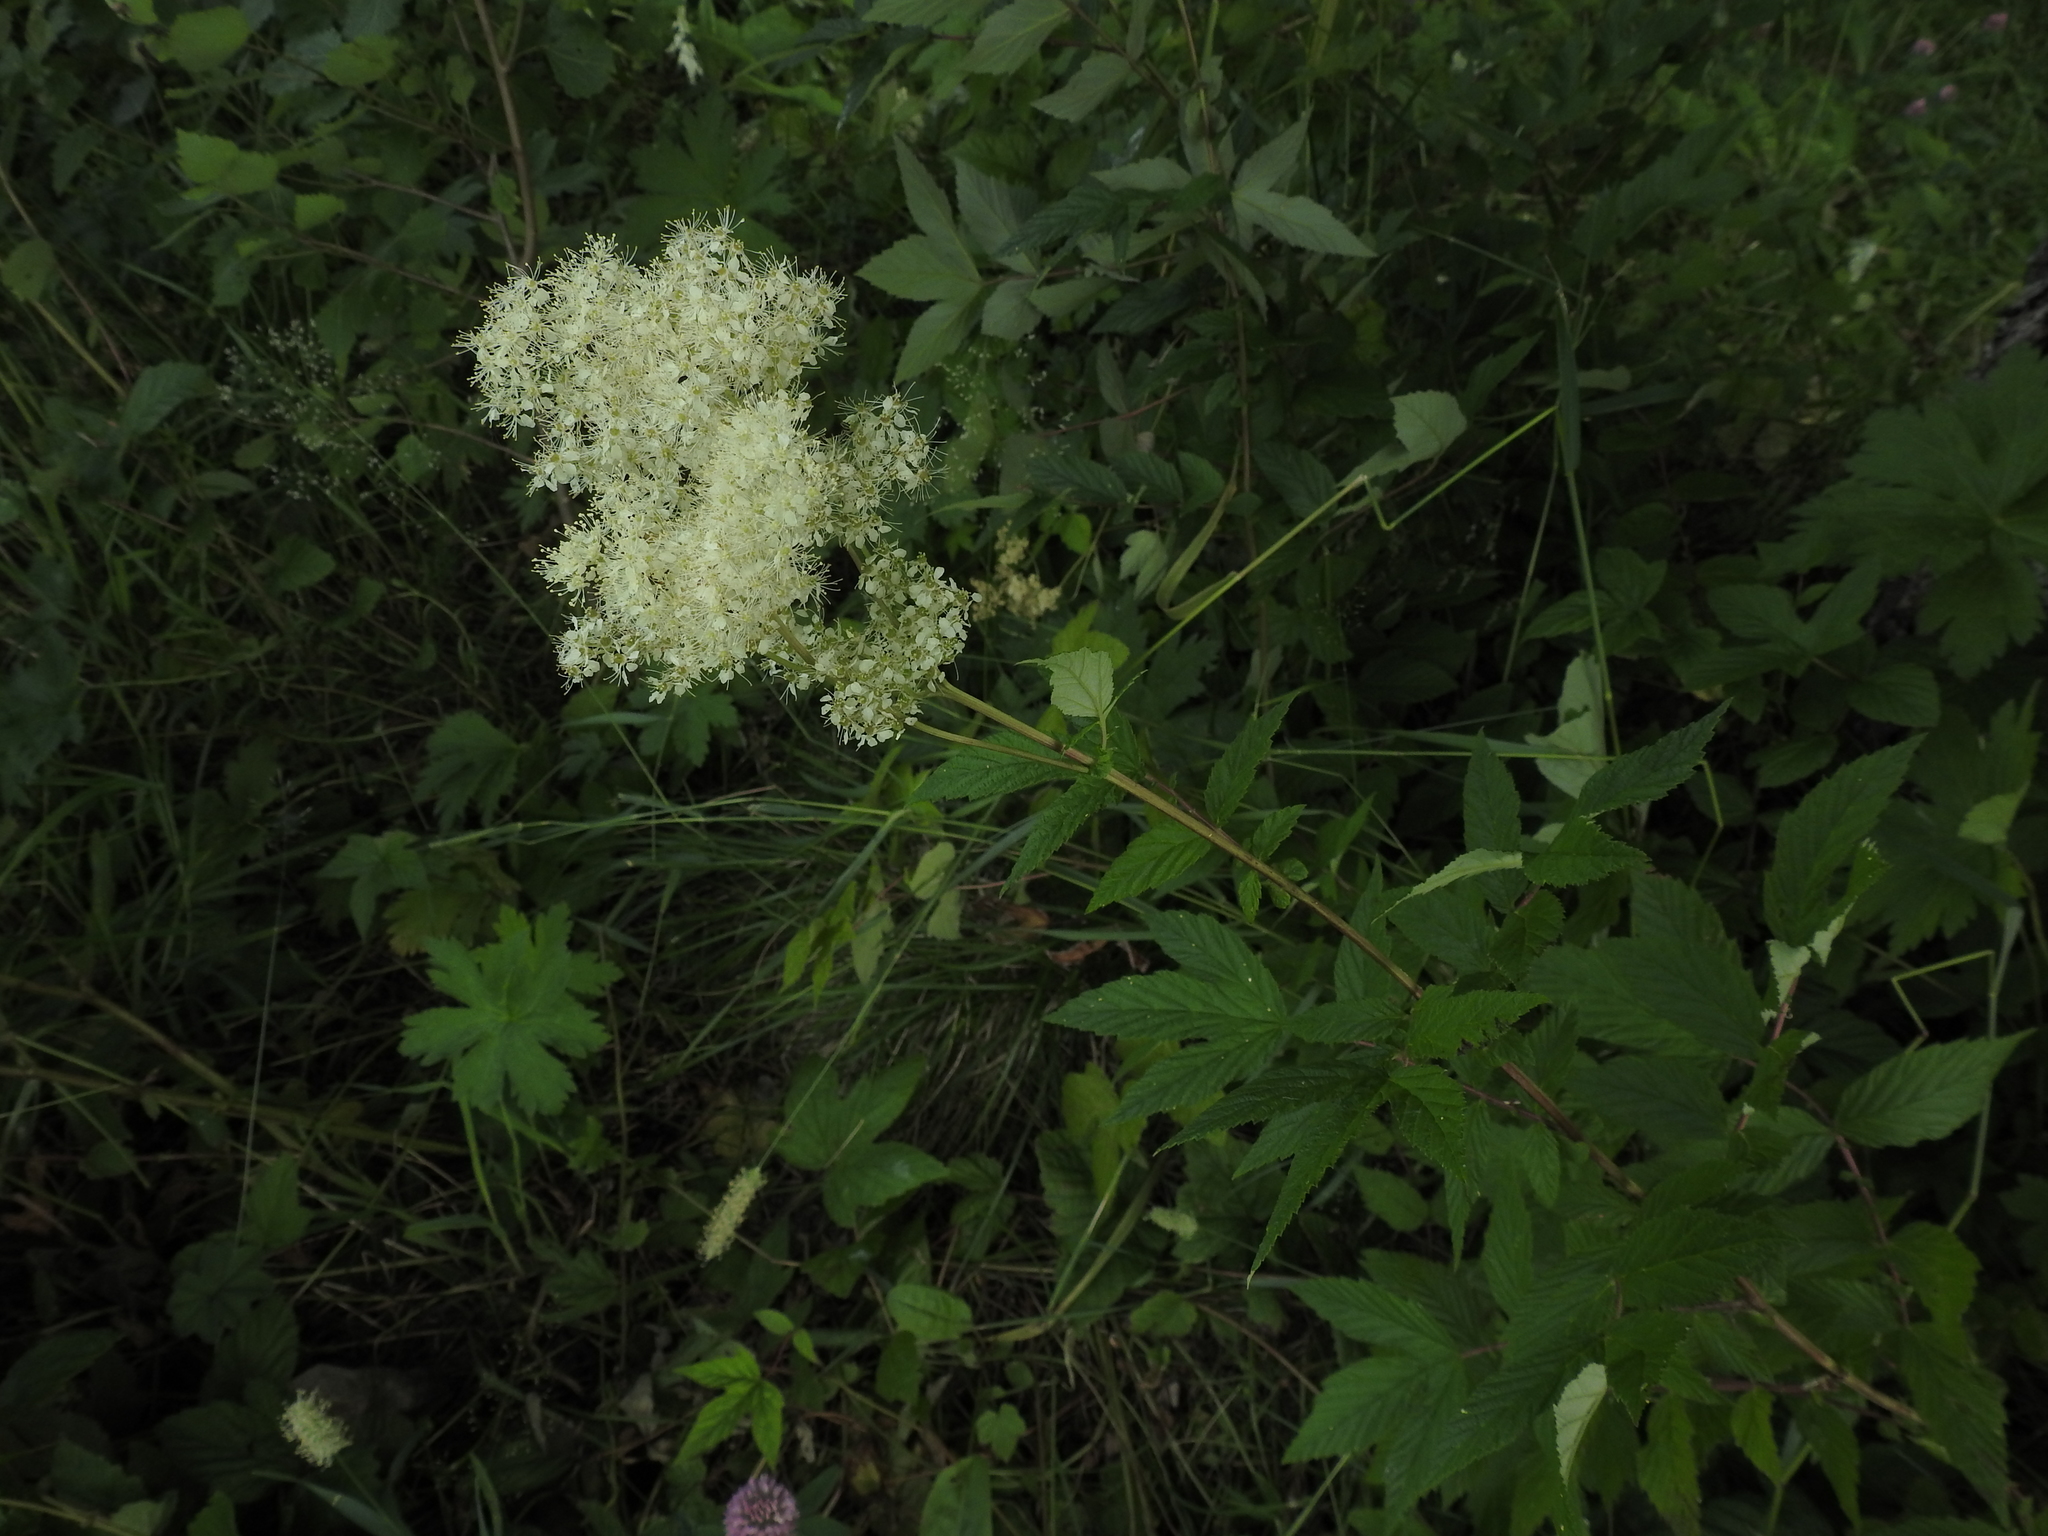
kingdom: Plantae
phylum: Tracheophyta
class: Magnoliopsida
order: Rosales
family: Rosaceae
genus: Filipendula
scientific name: Filipendula ulmaria
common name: Meadowsweet
